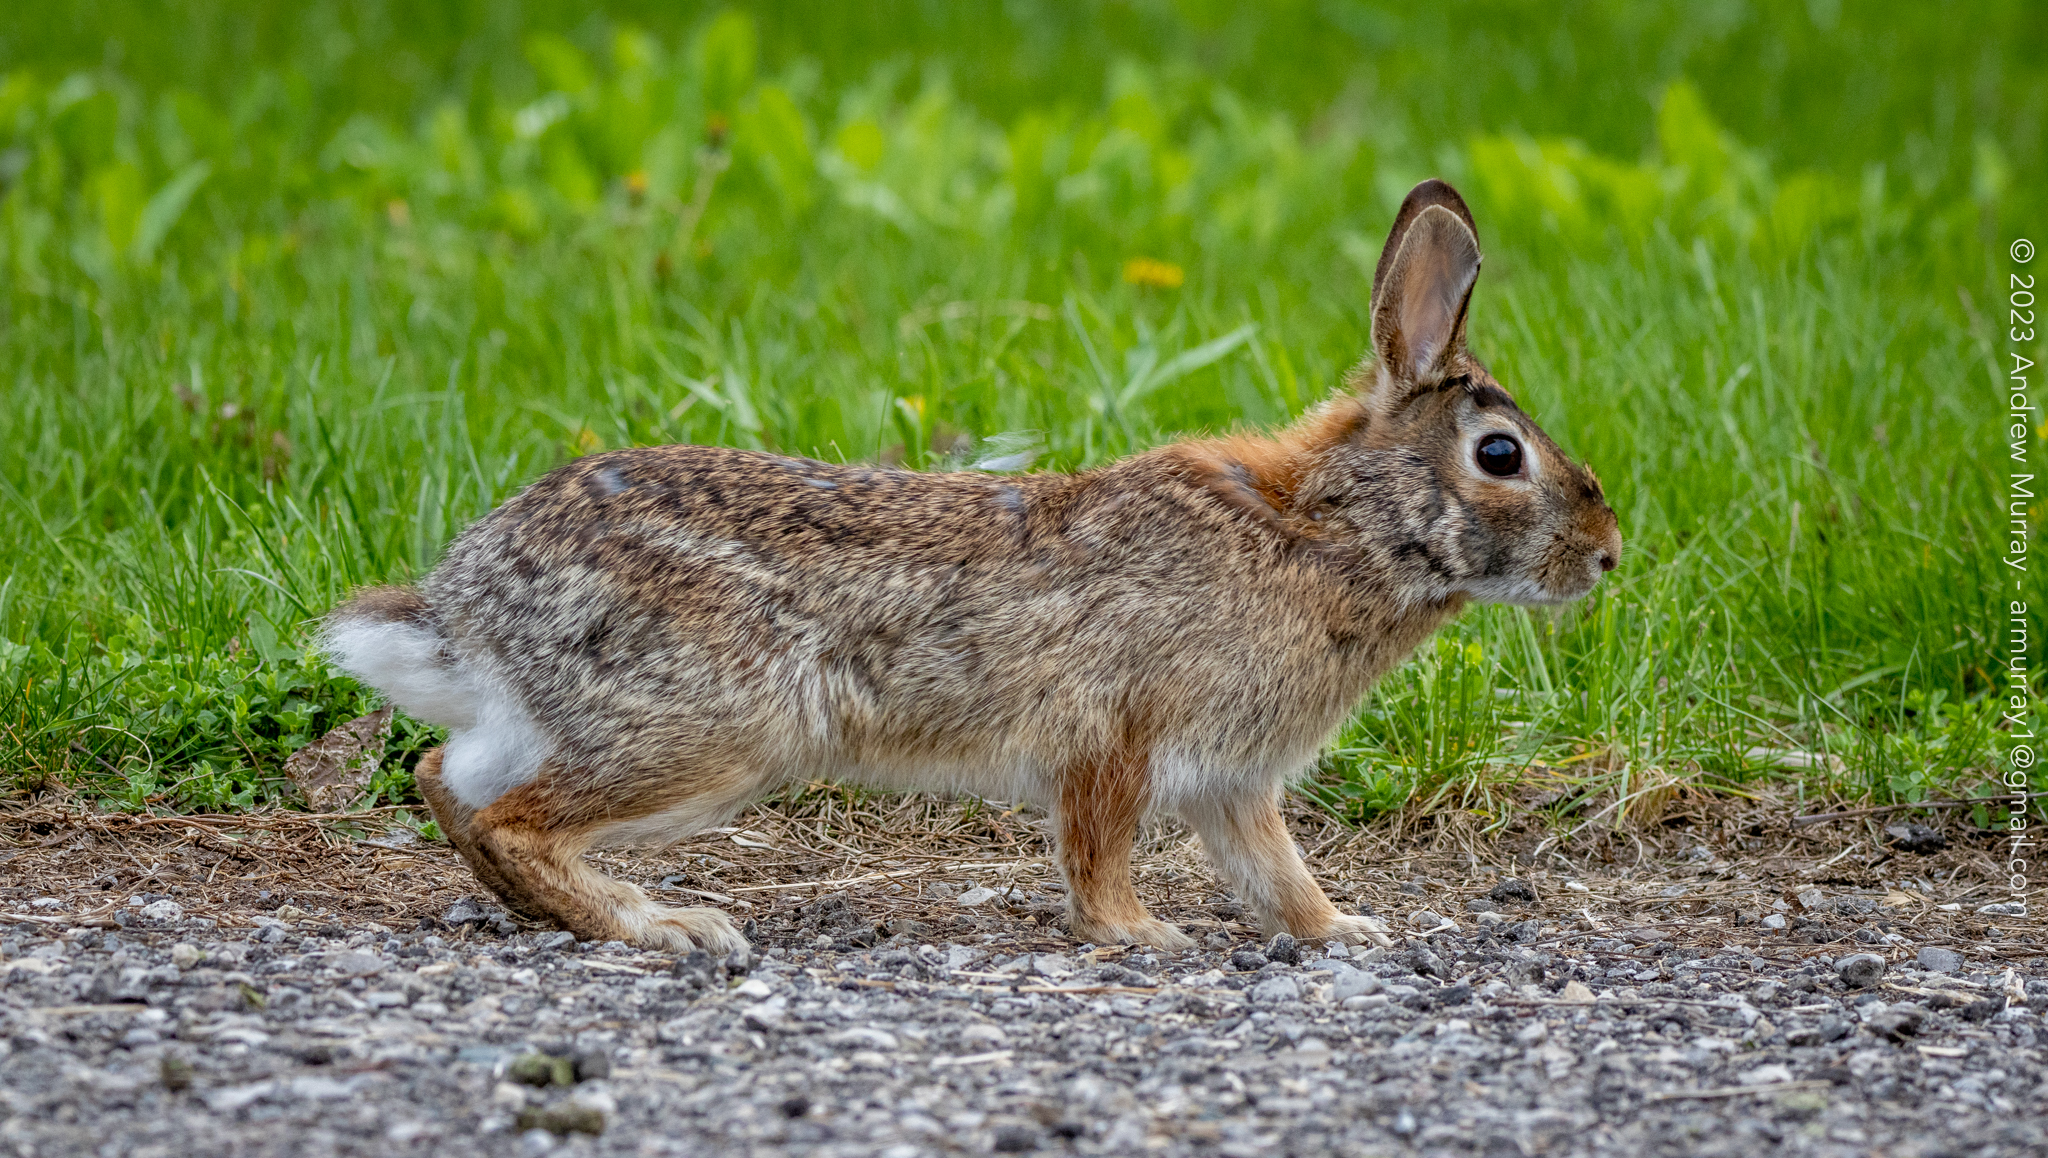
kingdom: Animalia
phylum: Chordata
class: Mammalia
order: Lagomorpha
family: Leporidae
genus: Sylvilagus
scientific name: Sylvilagus floridanus
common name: Eastern cottontail
